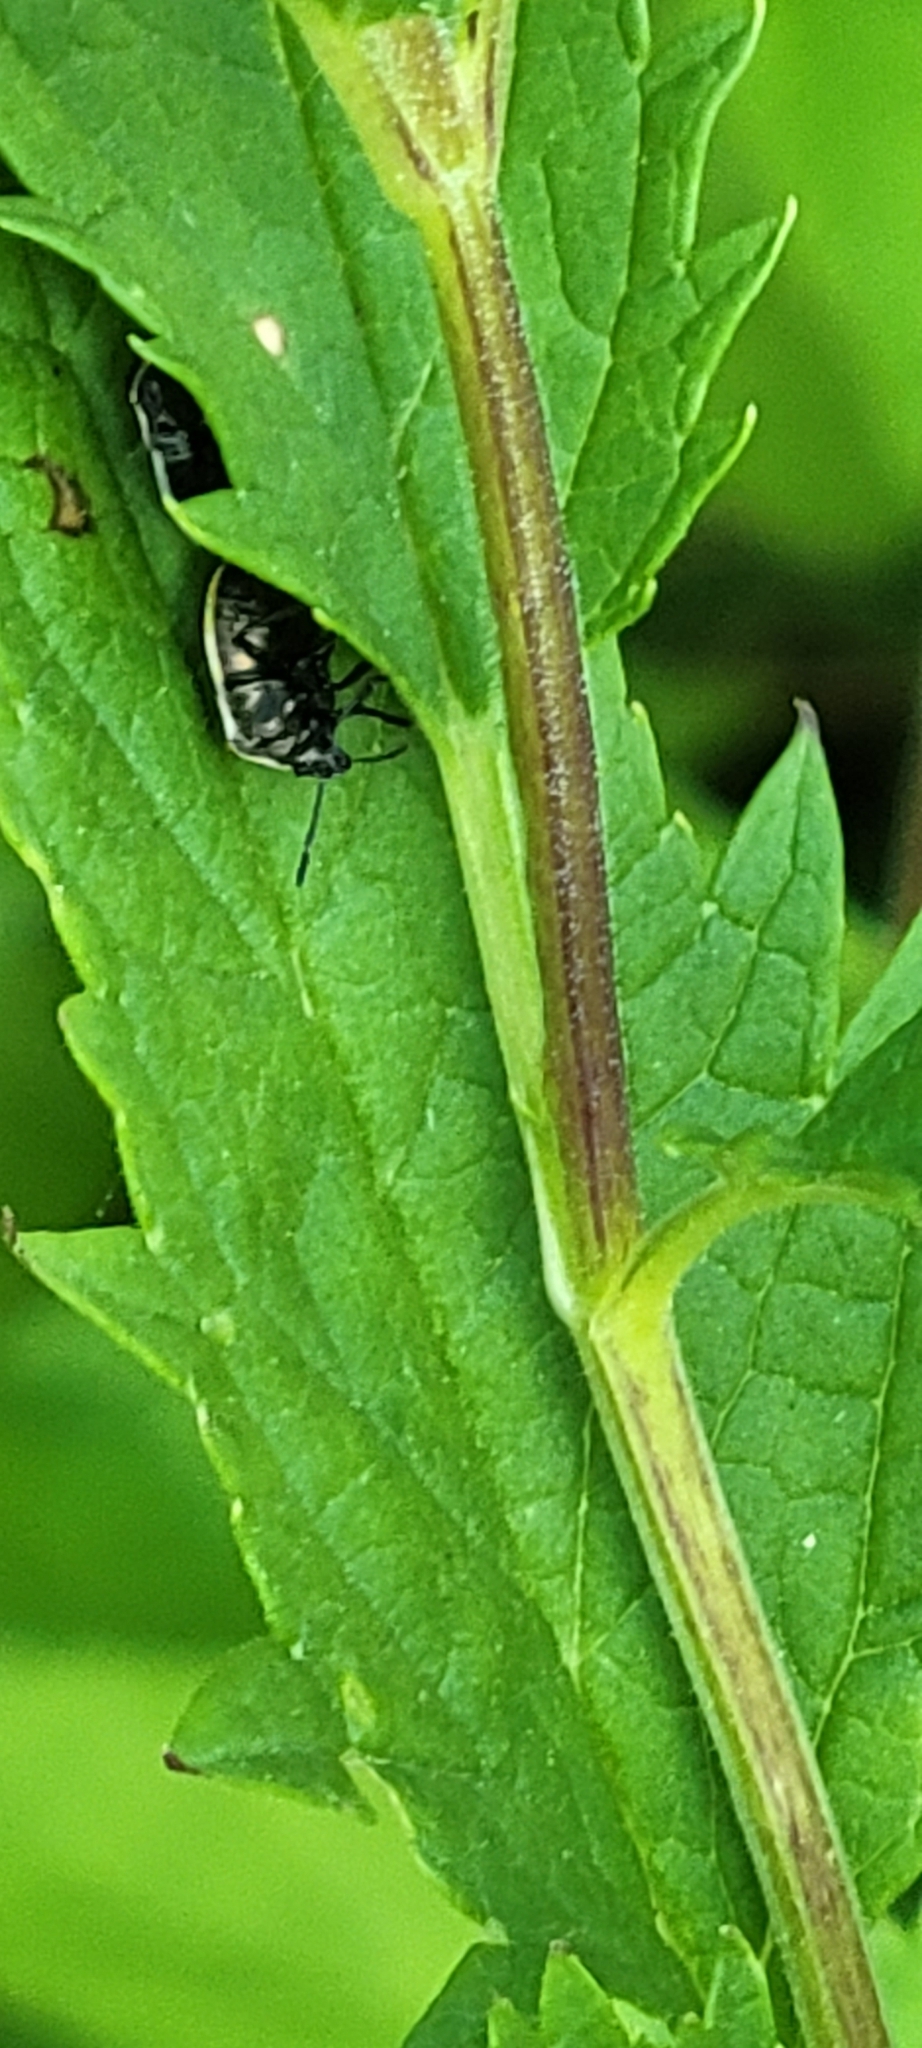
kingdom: Animalia
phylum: Arthropoda
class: Insecta
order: Hemiptera
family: Pentatomidae
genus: Cosmopepla
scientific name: Cosmopepla lintneriana
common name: Twice-stabbed stink bug
